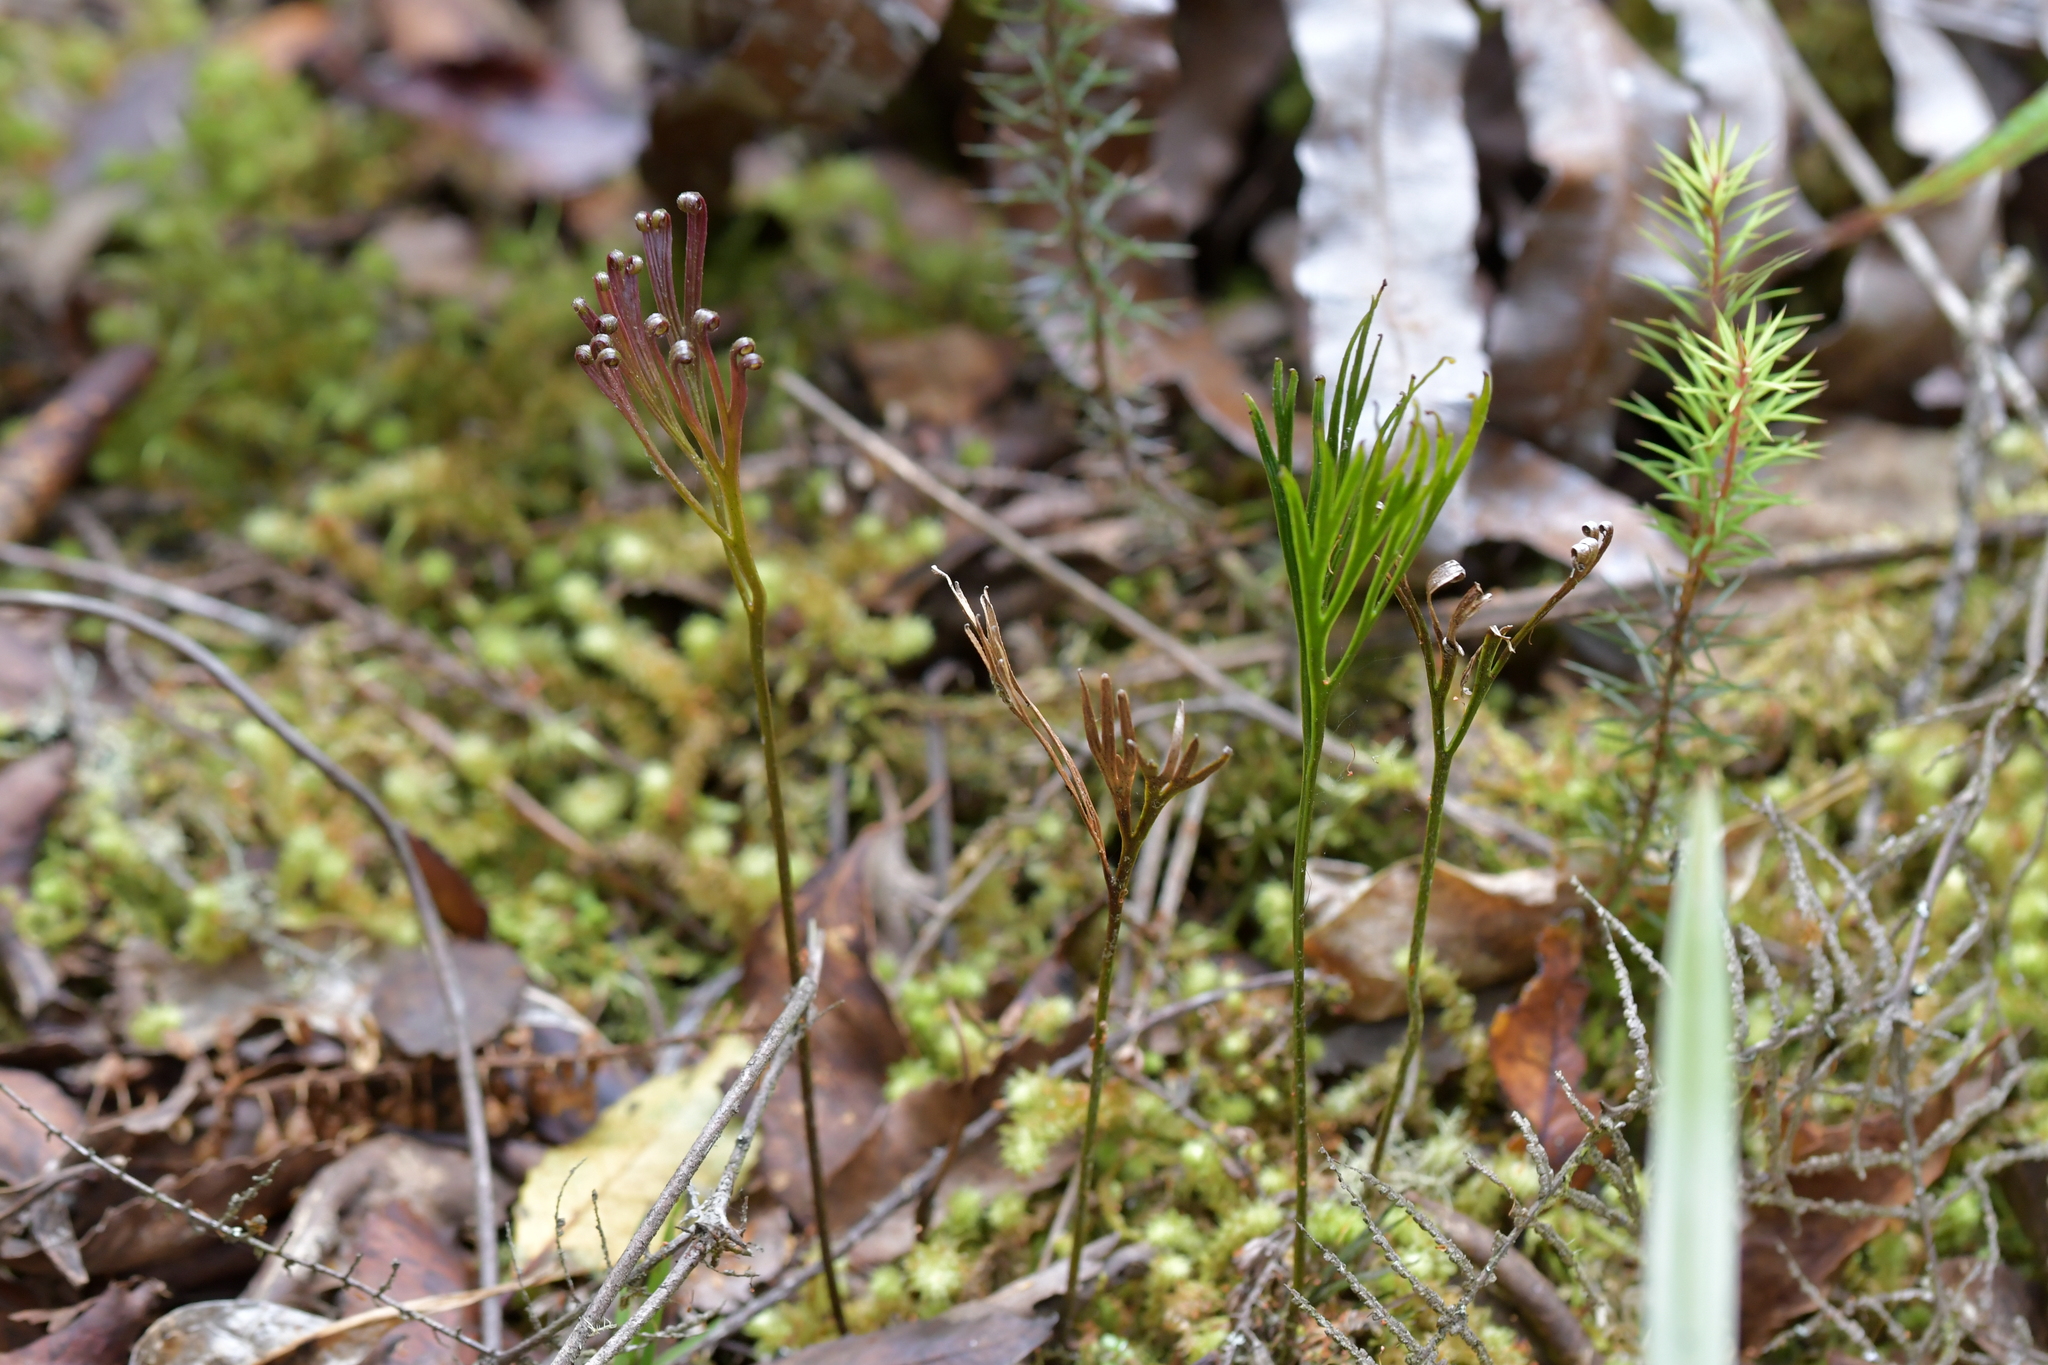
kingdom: Plantae
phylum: Tracheophyta
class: Polypodiopsida
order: Schizaeales
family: Schizaeaceae
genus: Schizaea
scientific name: Schizaea dichotoma
